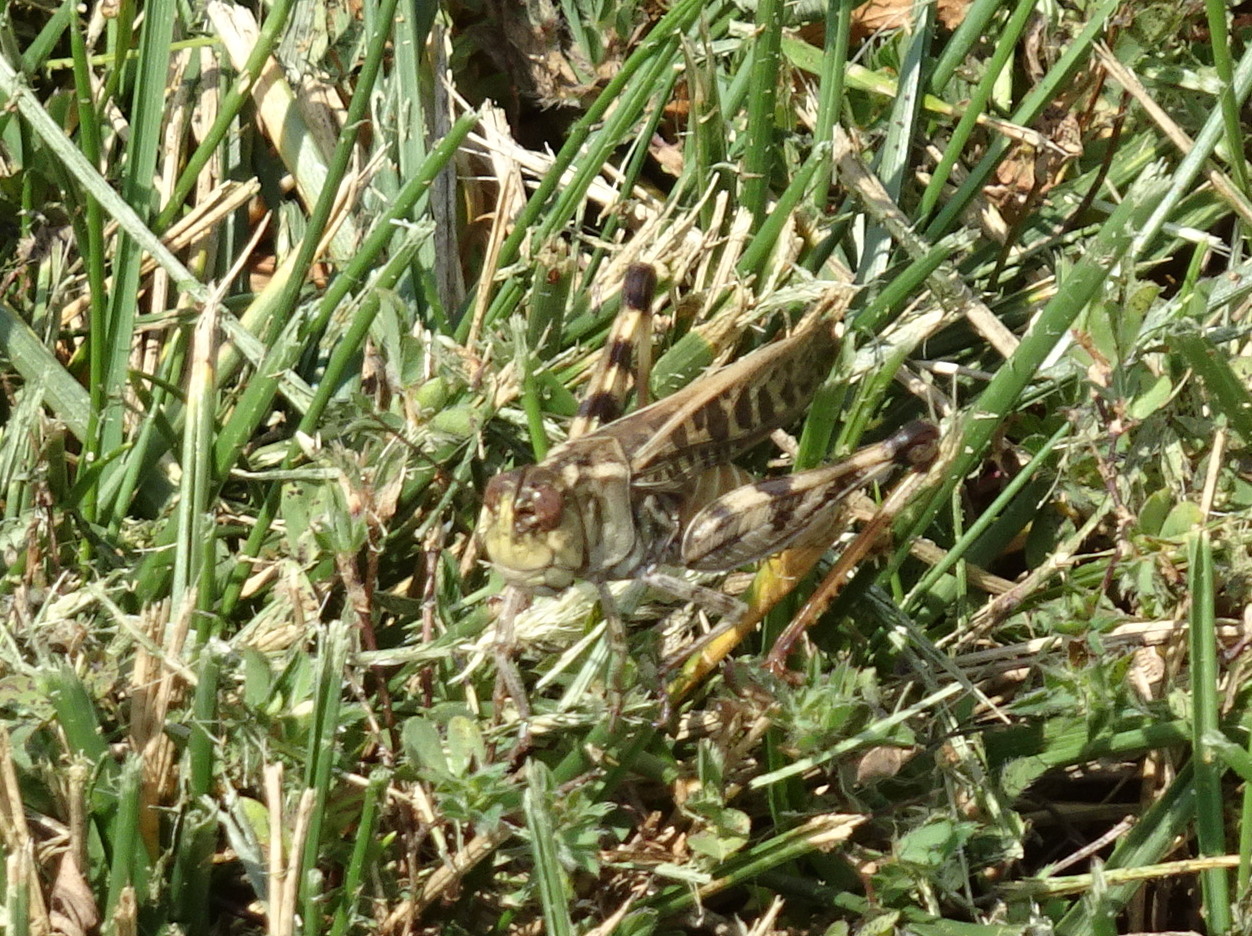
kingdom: Animalia
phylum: Arthropoda
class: Insecta
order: Orthoptera
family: Acrididae
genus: Hippiscus
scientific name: Hippiscus ocelote
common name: Wrinkled grasshopper
